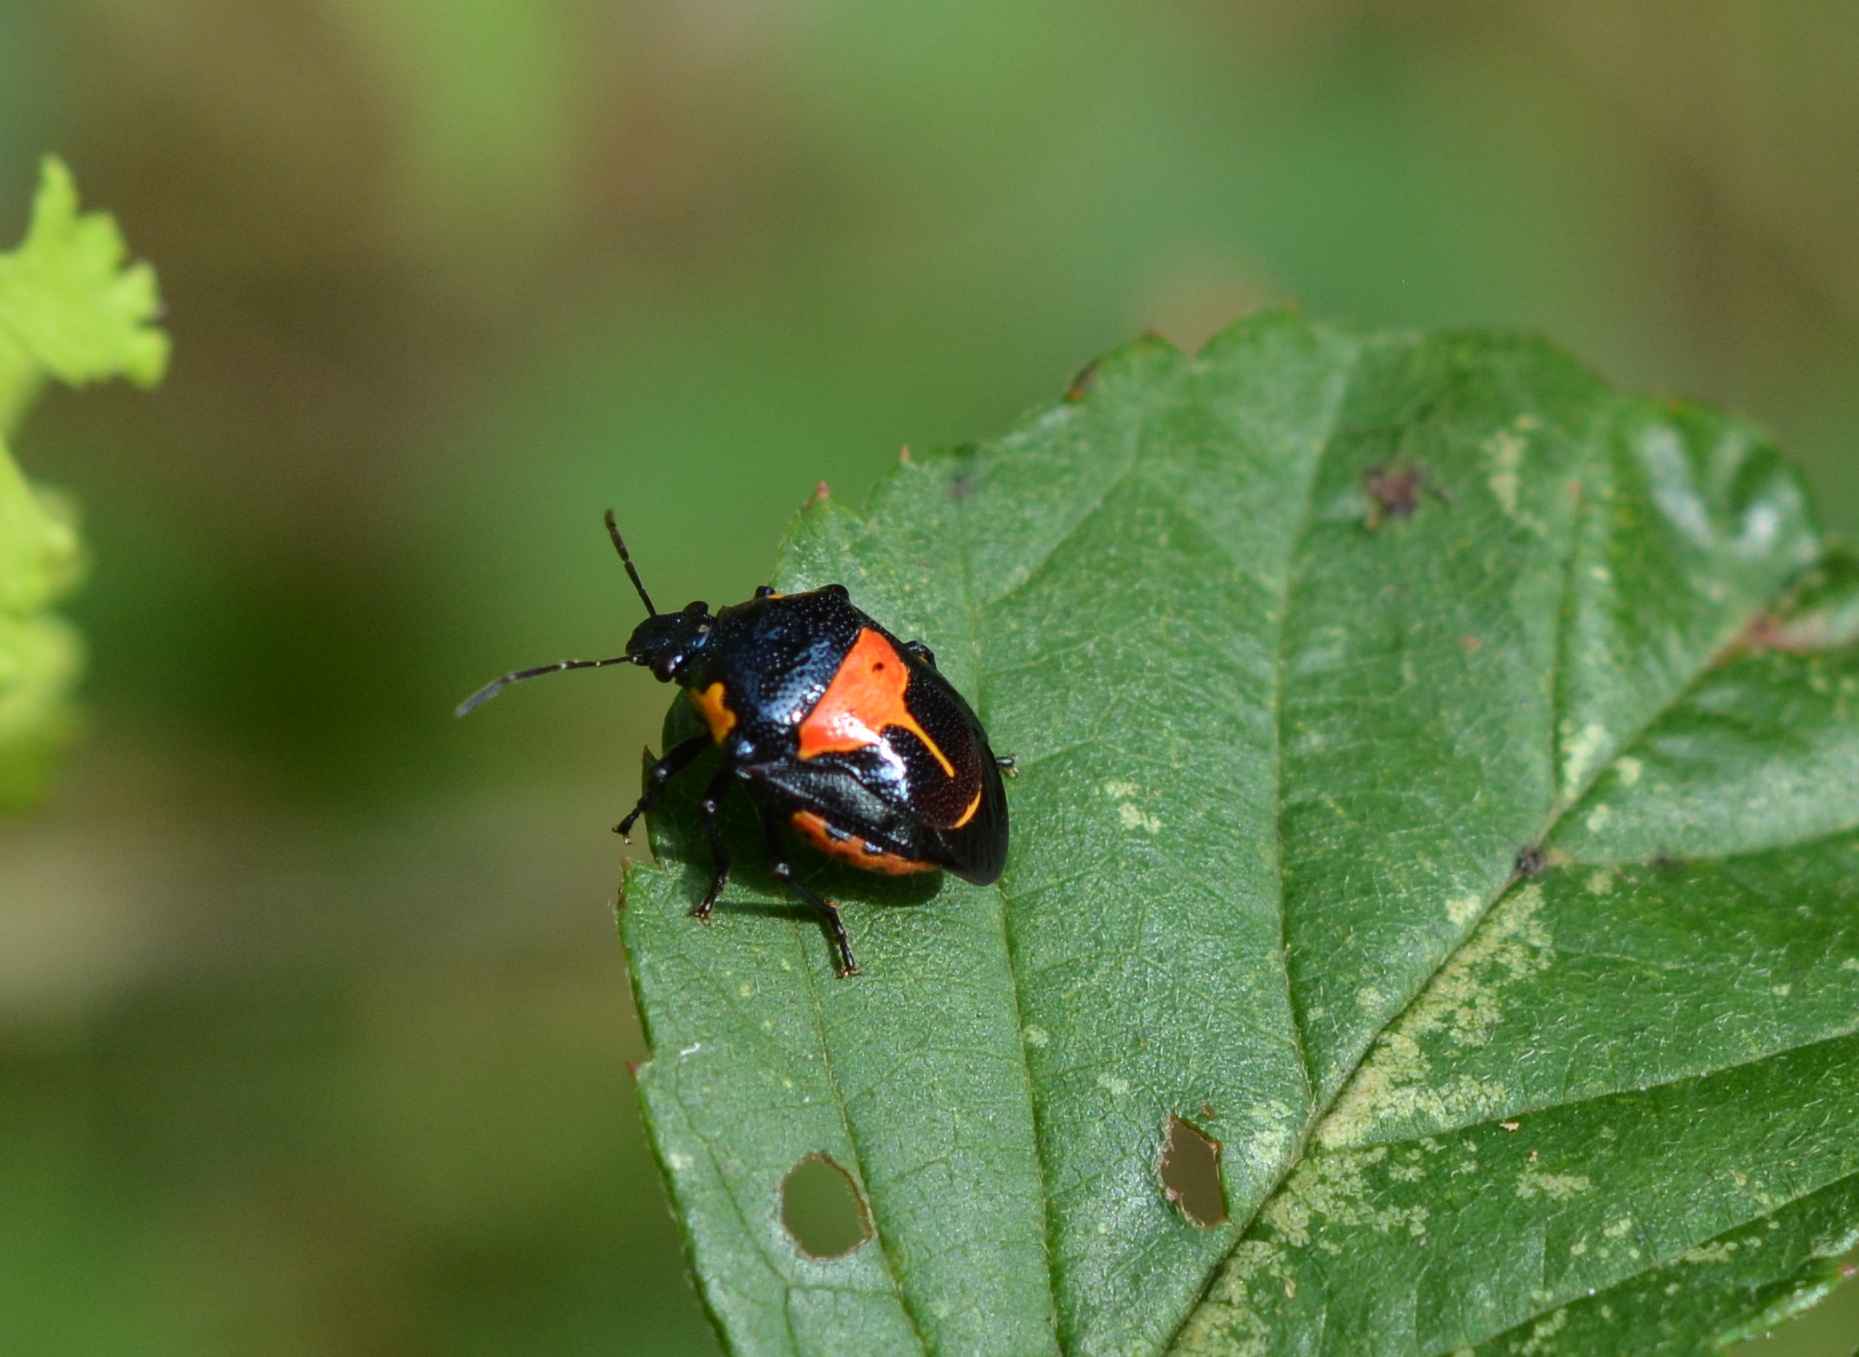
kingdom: Animalia
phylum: Arthropoda
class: Insecta
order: Hemiptera
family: Pentatomidae
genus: Stiretrus
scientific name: Stiretrus anchorago
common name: Anchor stink bug
